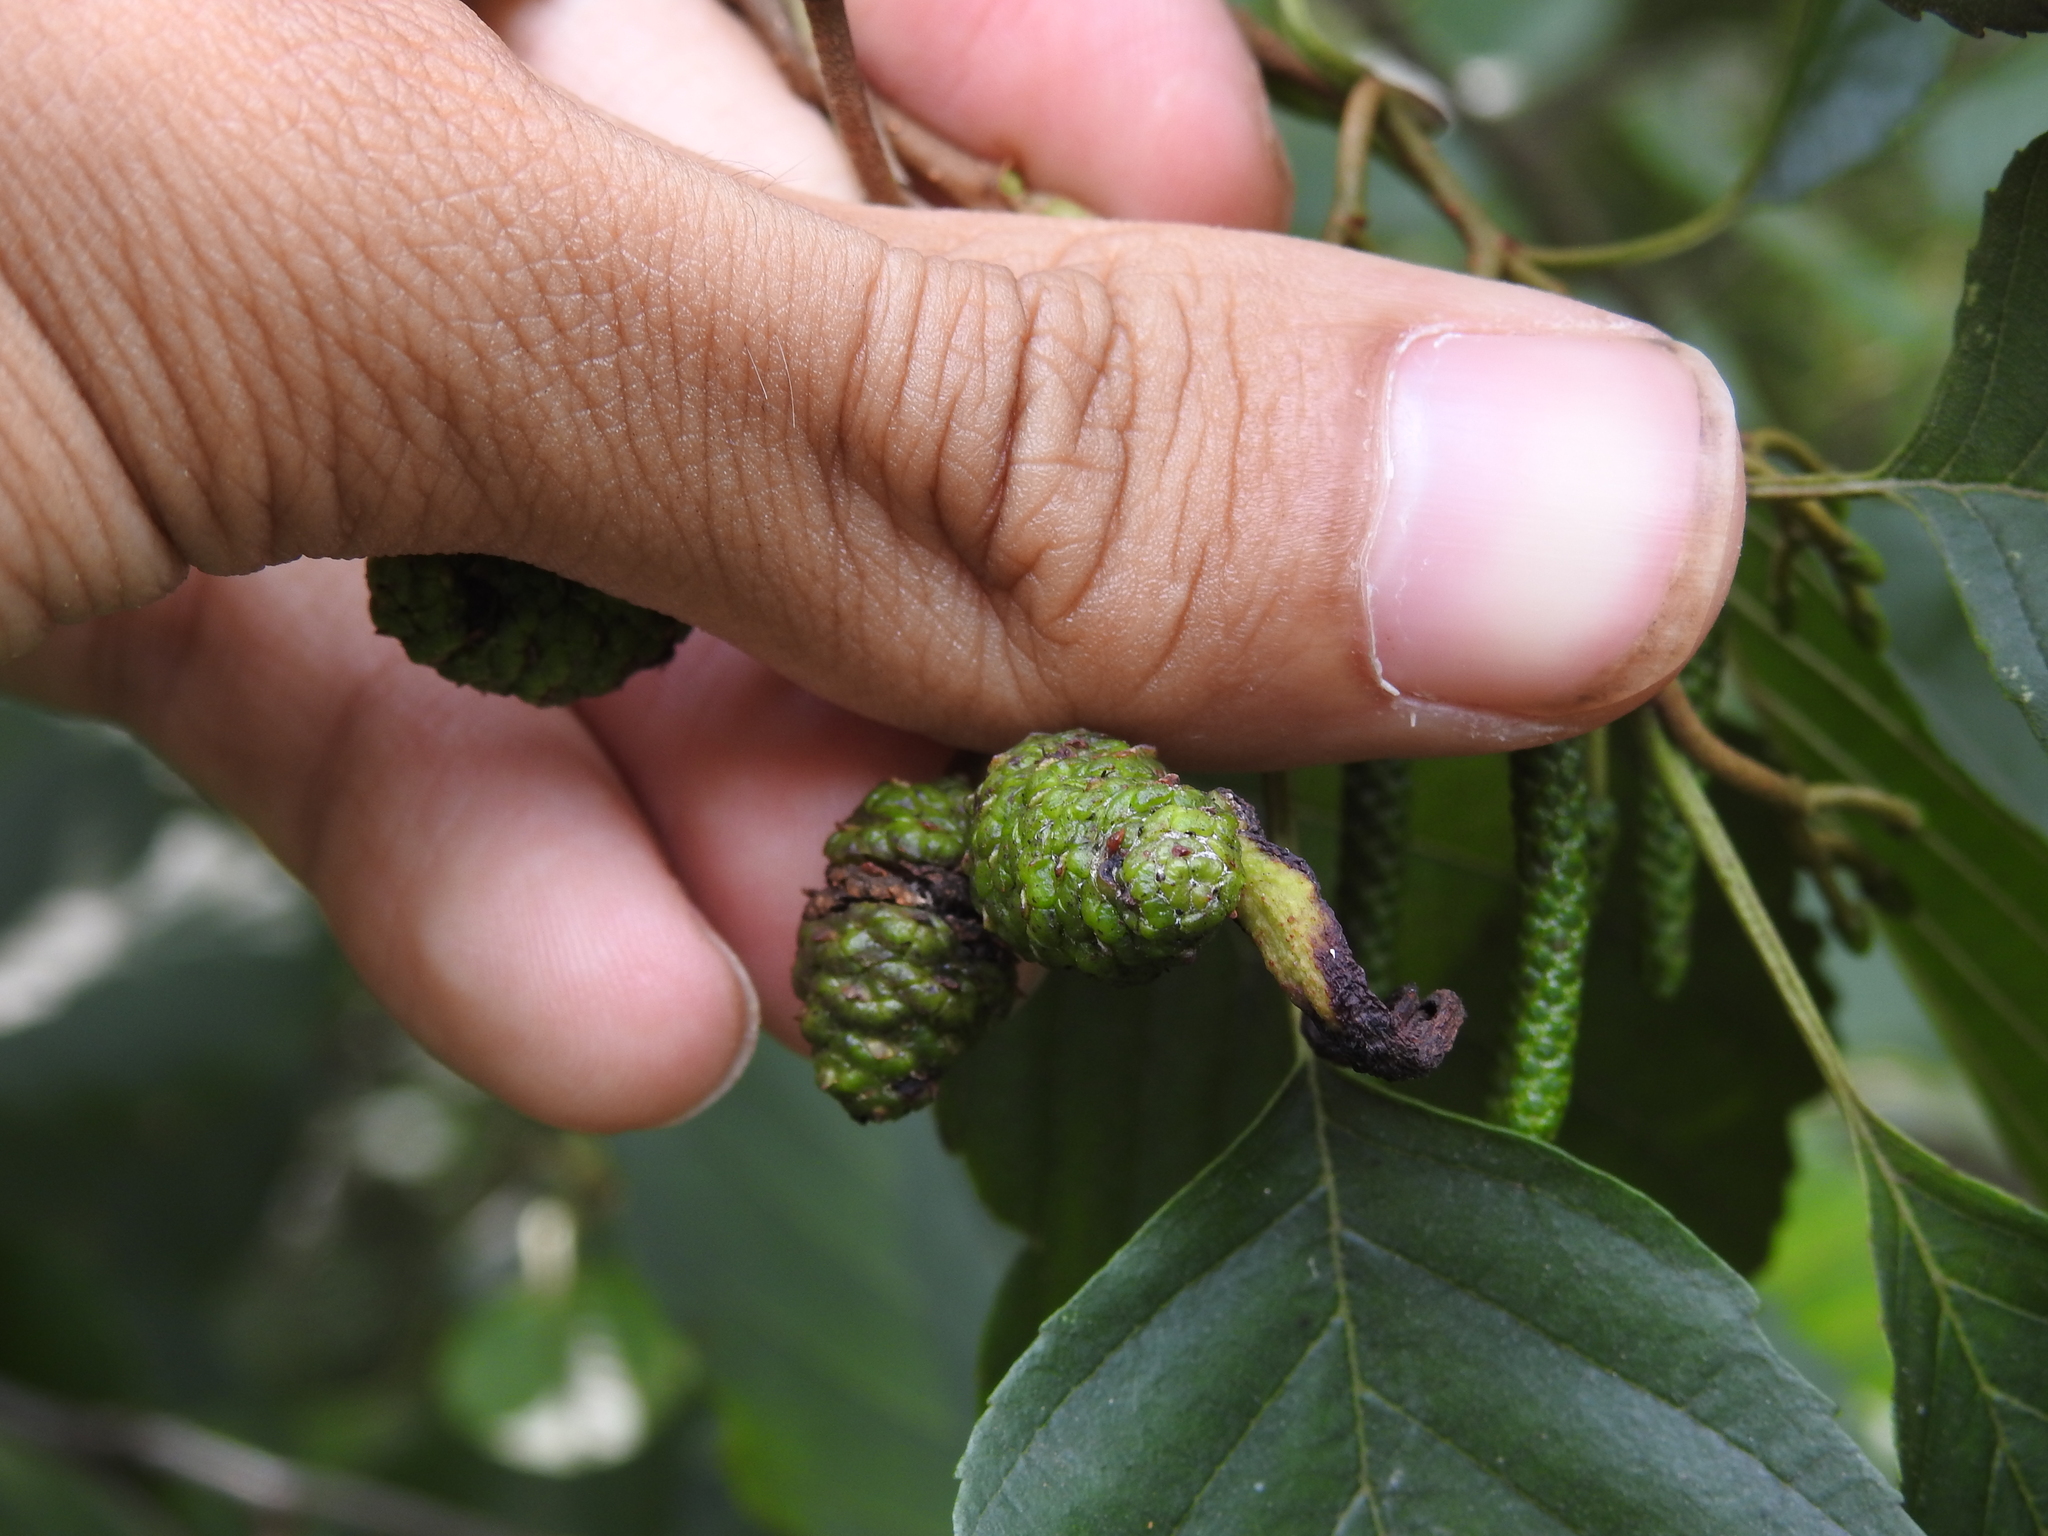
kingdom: Fungi
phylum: Ascomycota
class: Taphrinomycetes
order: Taphrinales
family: Taphrinaceae
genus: Taphrina
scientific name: Taphrina alni
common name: Alder tongue
